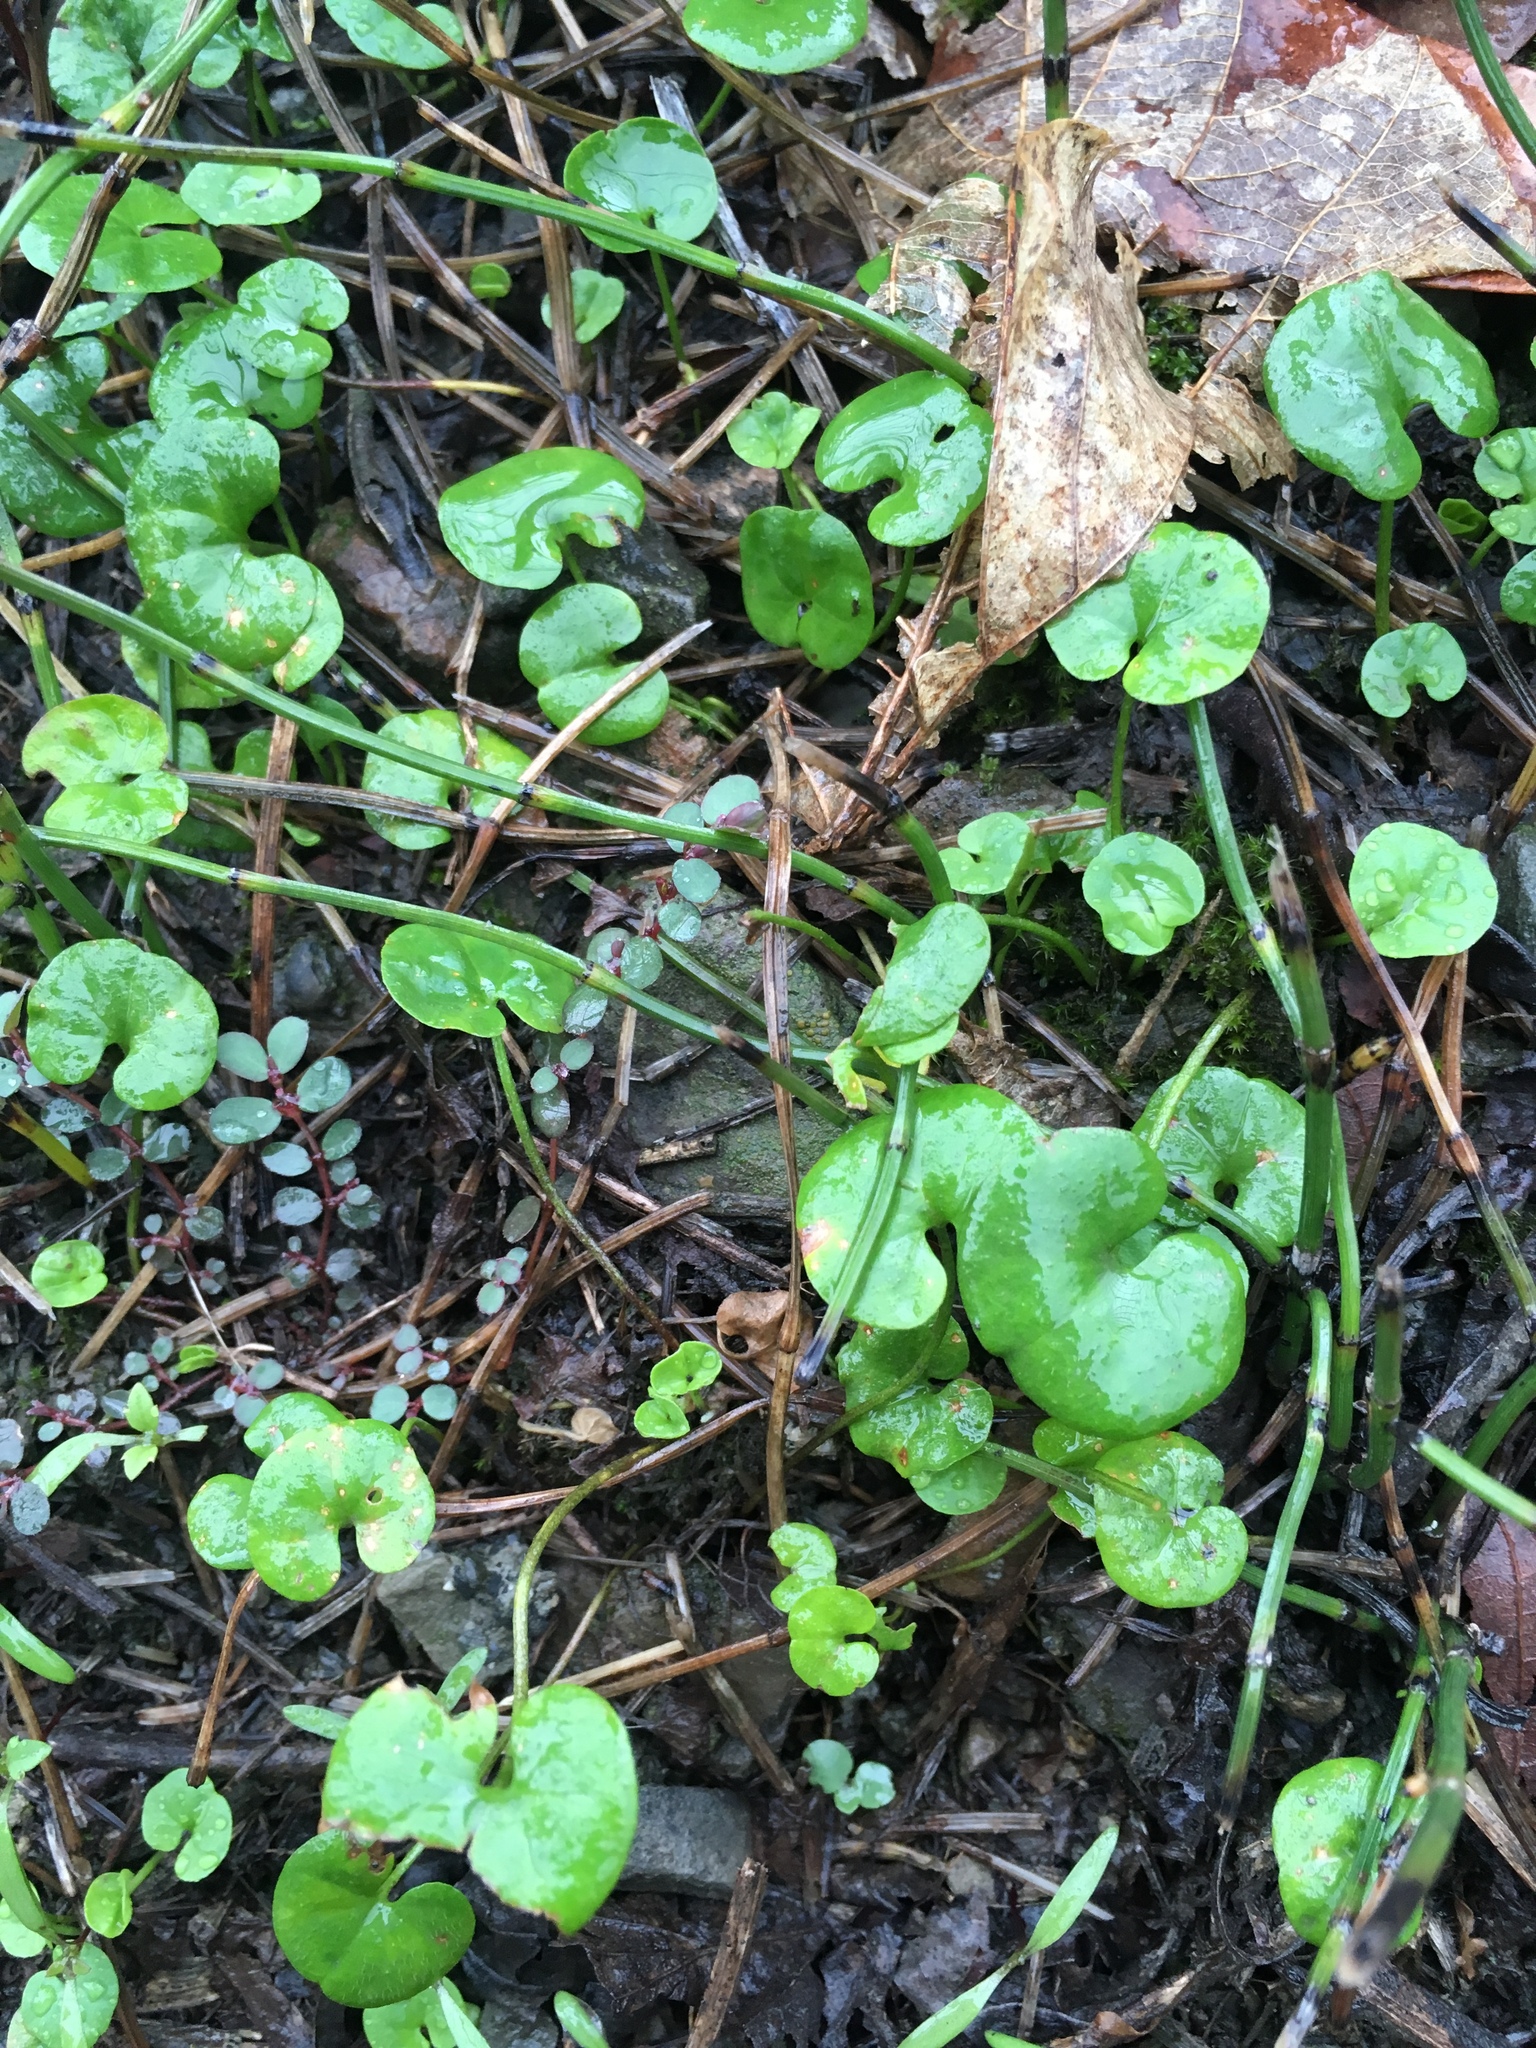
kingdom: Plantae
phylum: Tracheophyta
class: Magnoliopsida
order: Solanales
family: Convolvulaceae
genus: Dichondra
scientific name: Dichondra micrantha
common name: Kidneyweed
